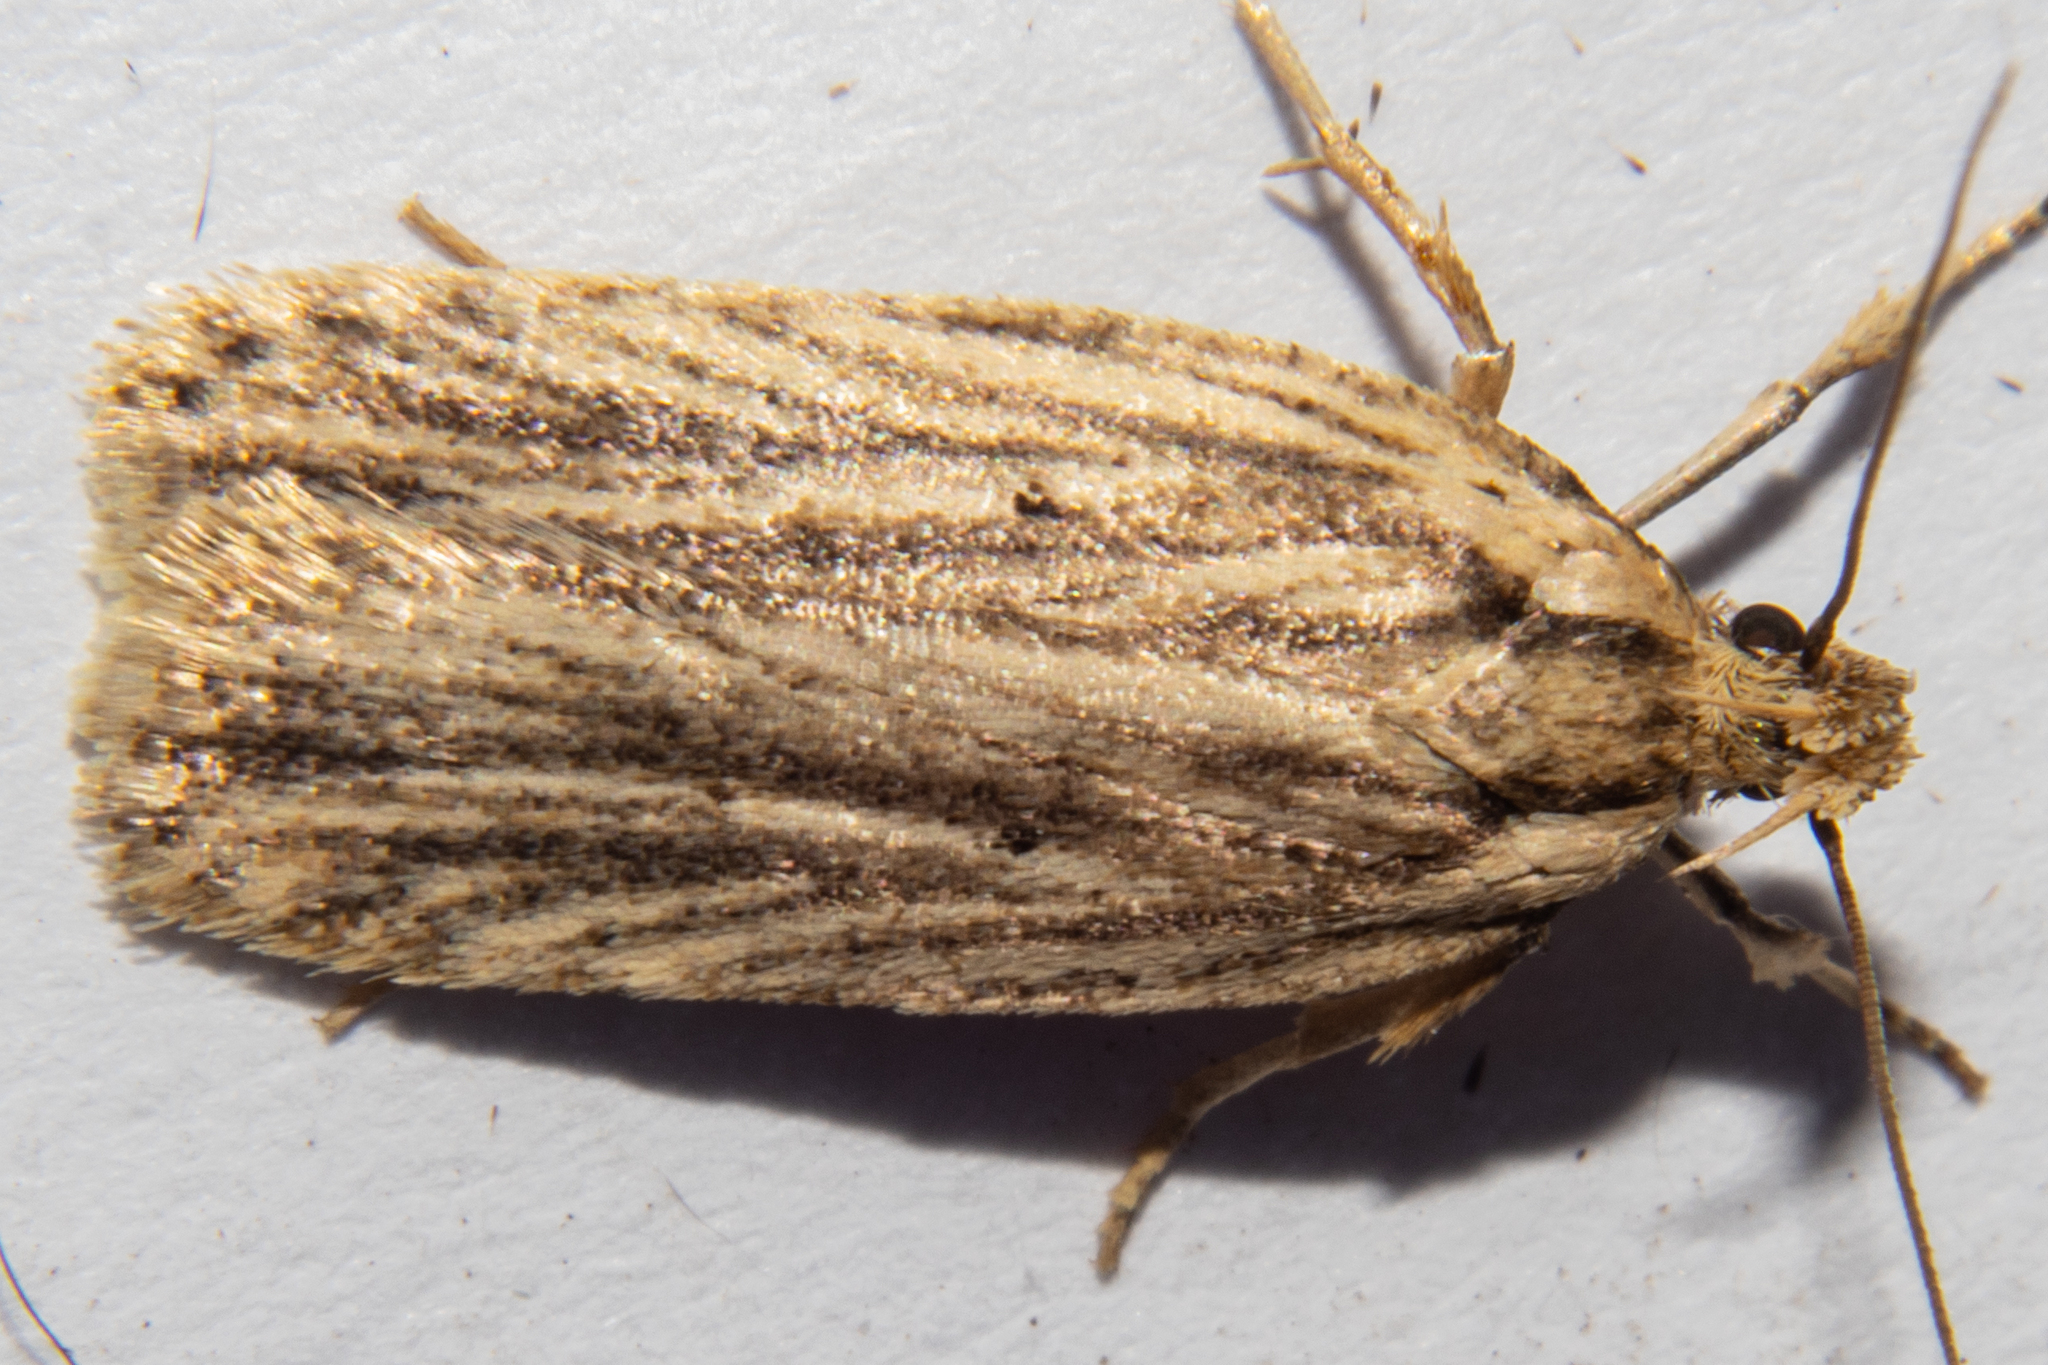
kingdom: Animalia
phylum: Arthropoda
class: Insecta
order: Lepidoptera
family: Depressariidae
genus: Agonopterix
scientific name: Agonopterix
